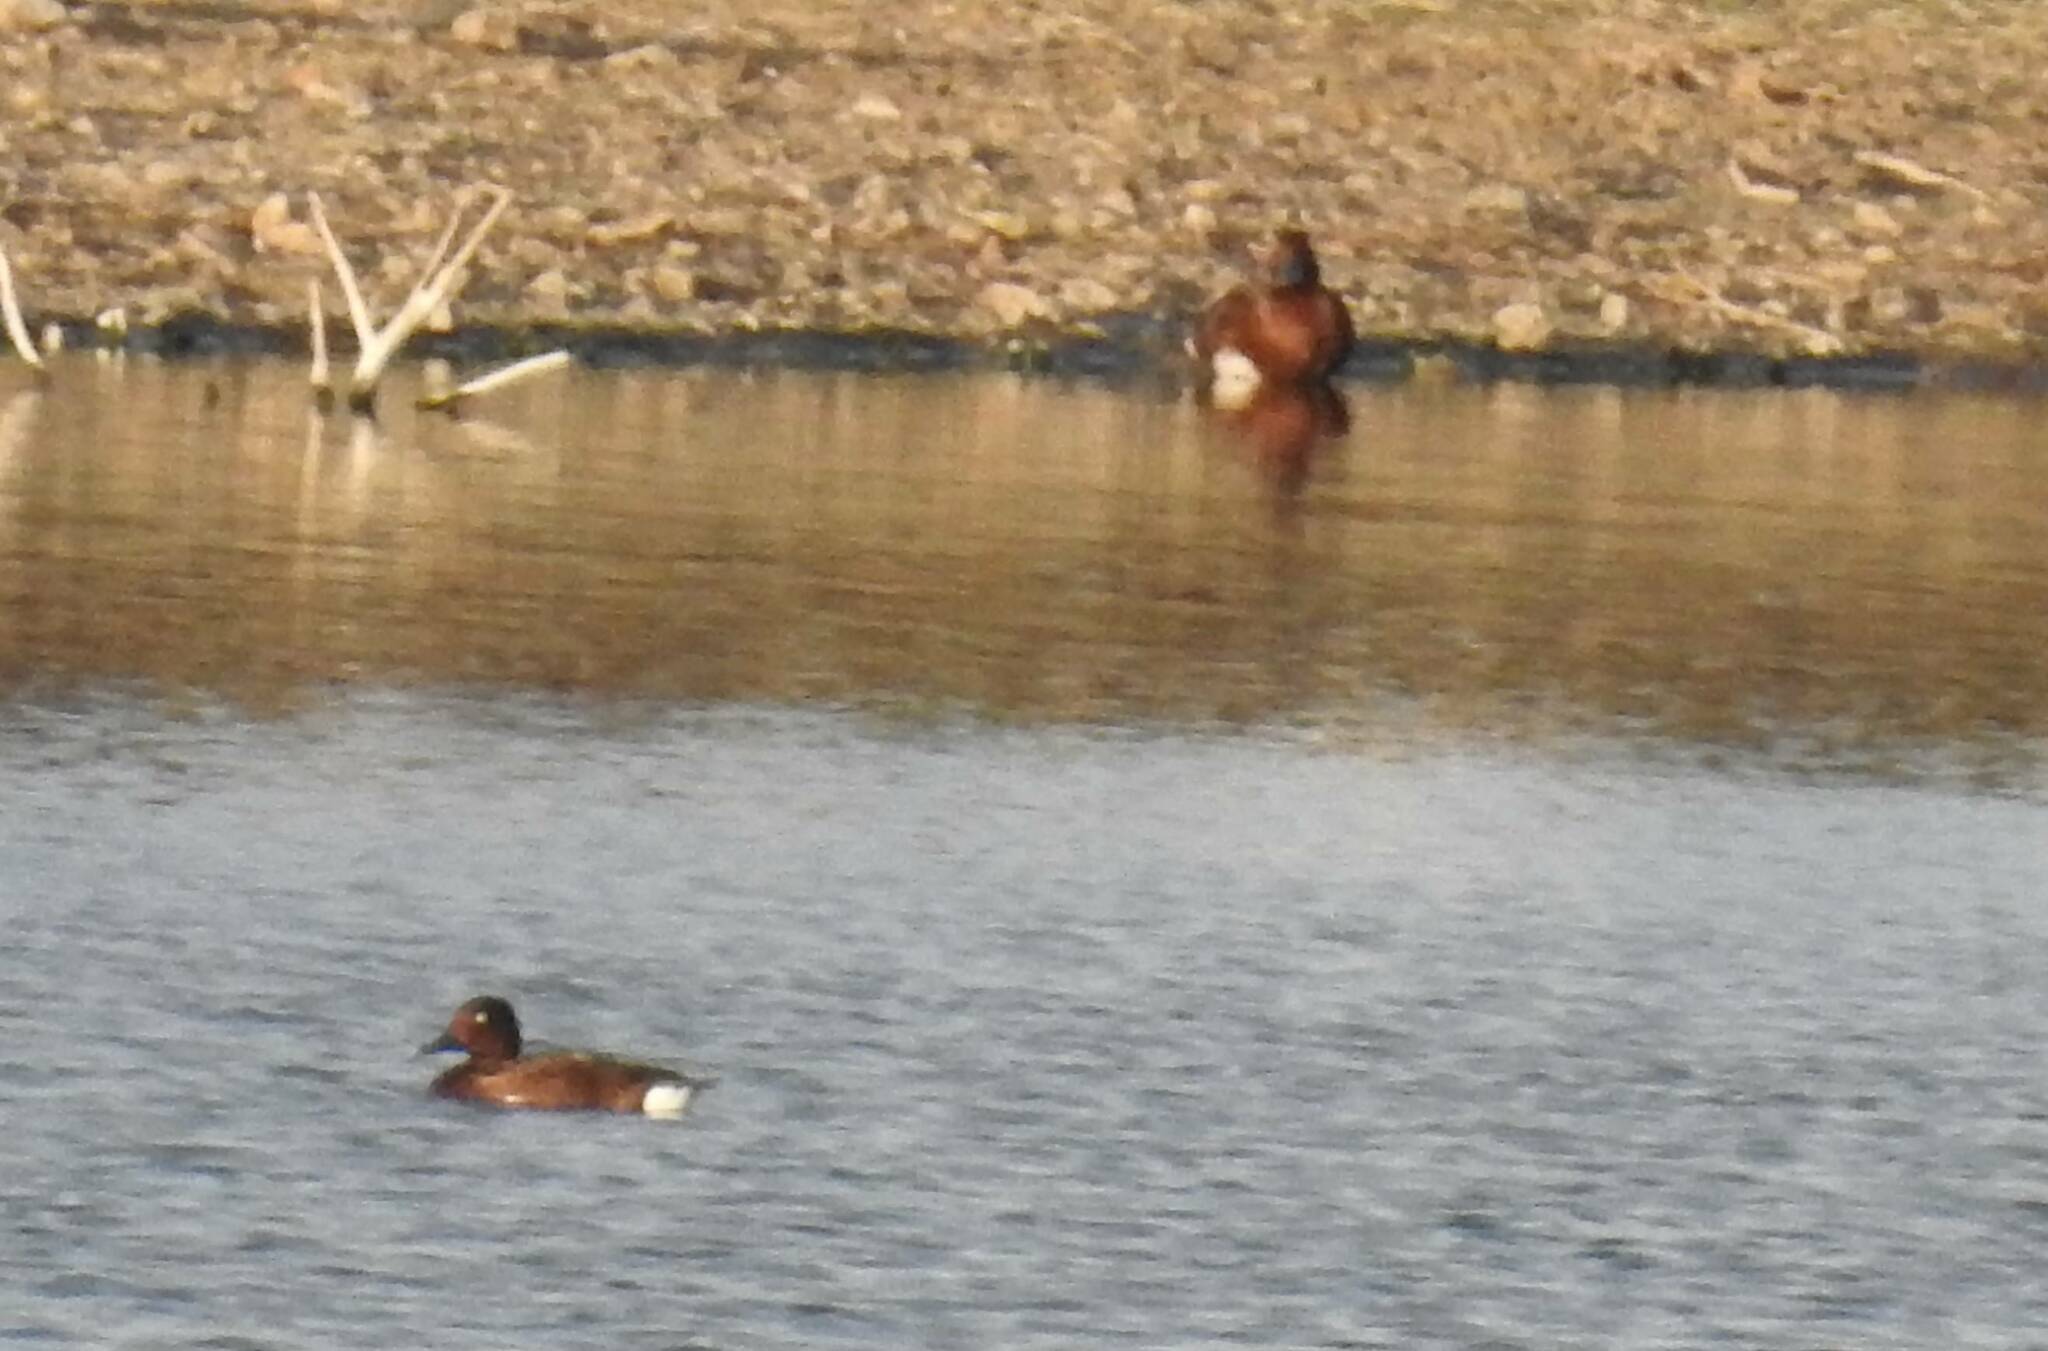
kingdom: Animalia
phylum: Chordata
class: Aves
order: Anseriformes
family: Anatidae
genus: Aythya
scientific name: Aythya nyroca
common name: Ferruginous duck
